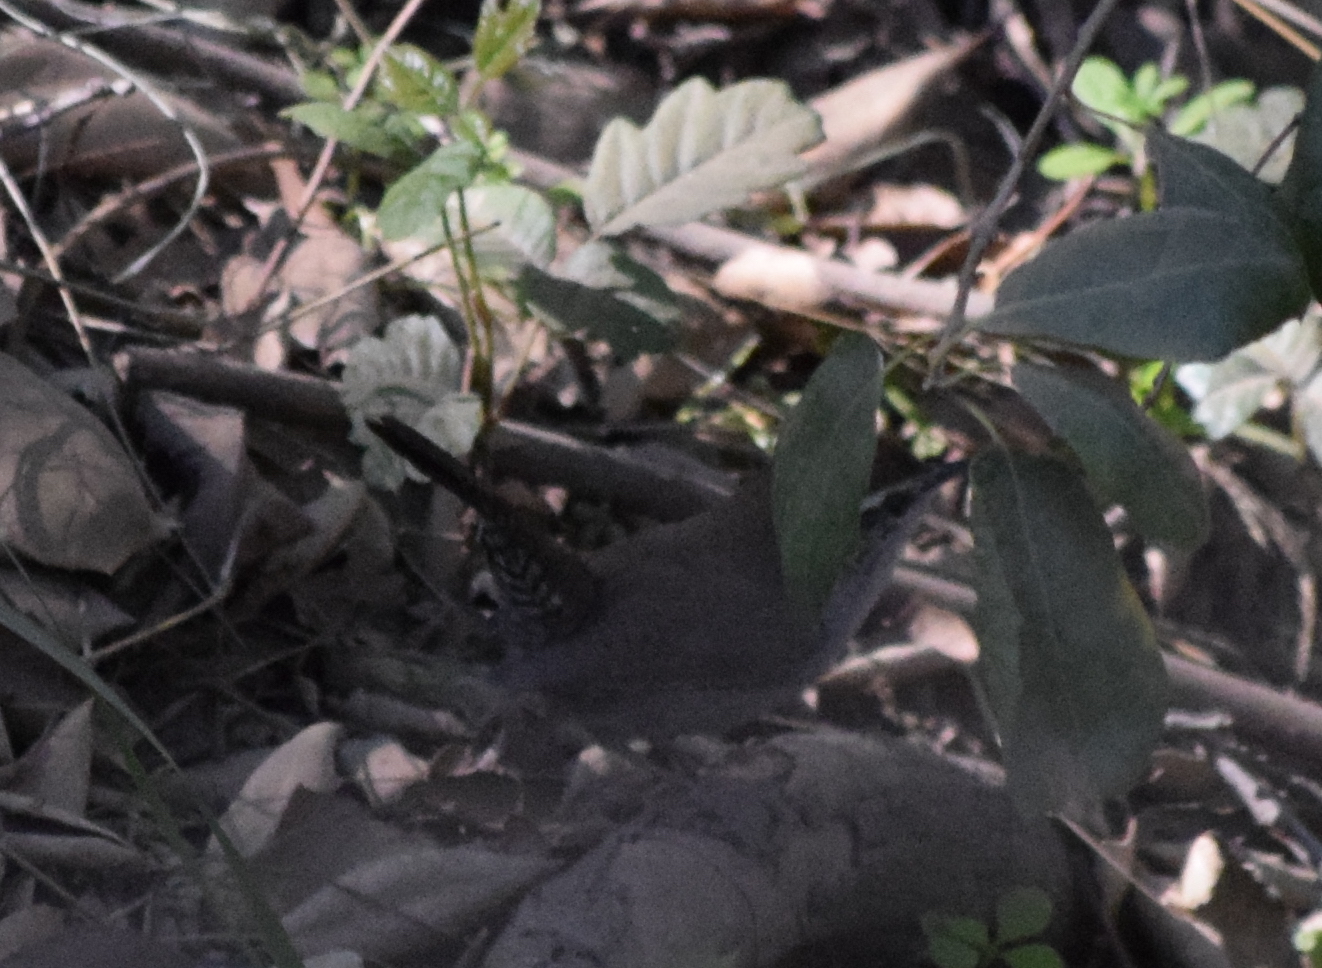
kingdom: Animalia
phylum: Chordata
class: Aves
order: Passeriformes
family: Troglodytidae
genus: Thryomanes
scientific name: Thryomanes bewickii
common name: Bewick's wren
